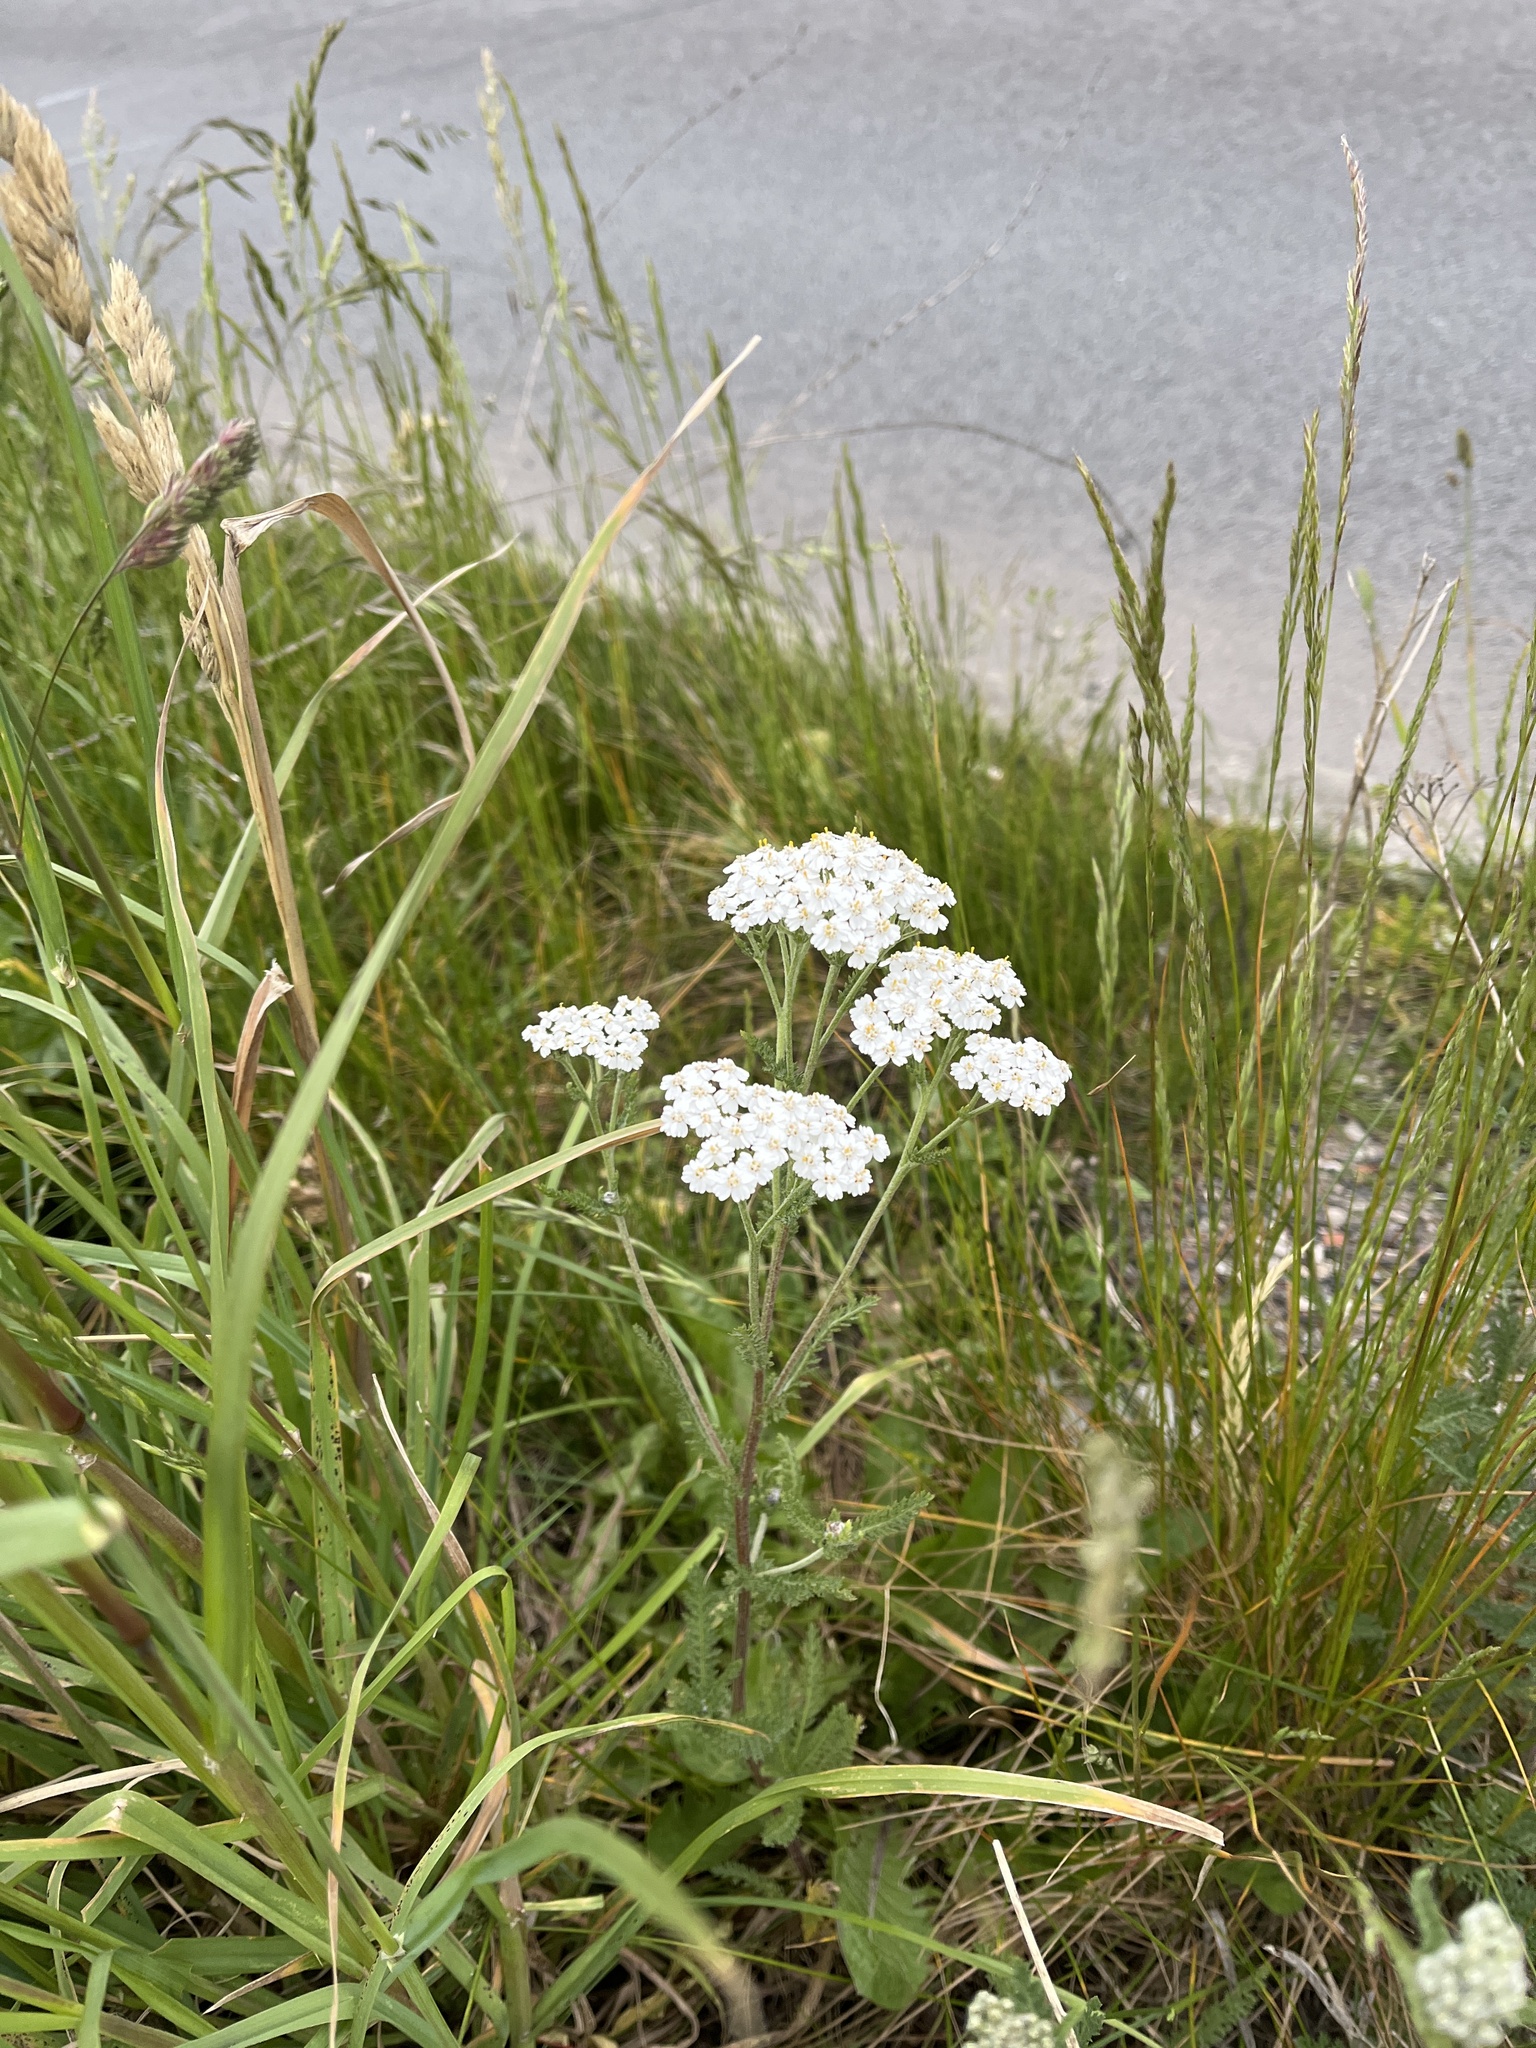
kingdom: Plantae
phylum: Tracheophyta
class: Magnoliopsida
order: Asterales
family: Asteraceae
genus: Achillea
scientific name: Achillea millefolium
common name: Yarrow
